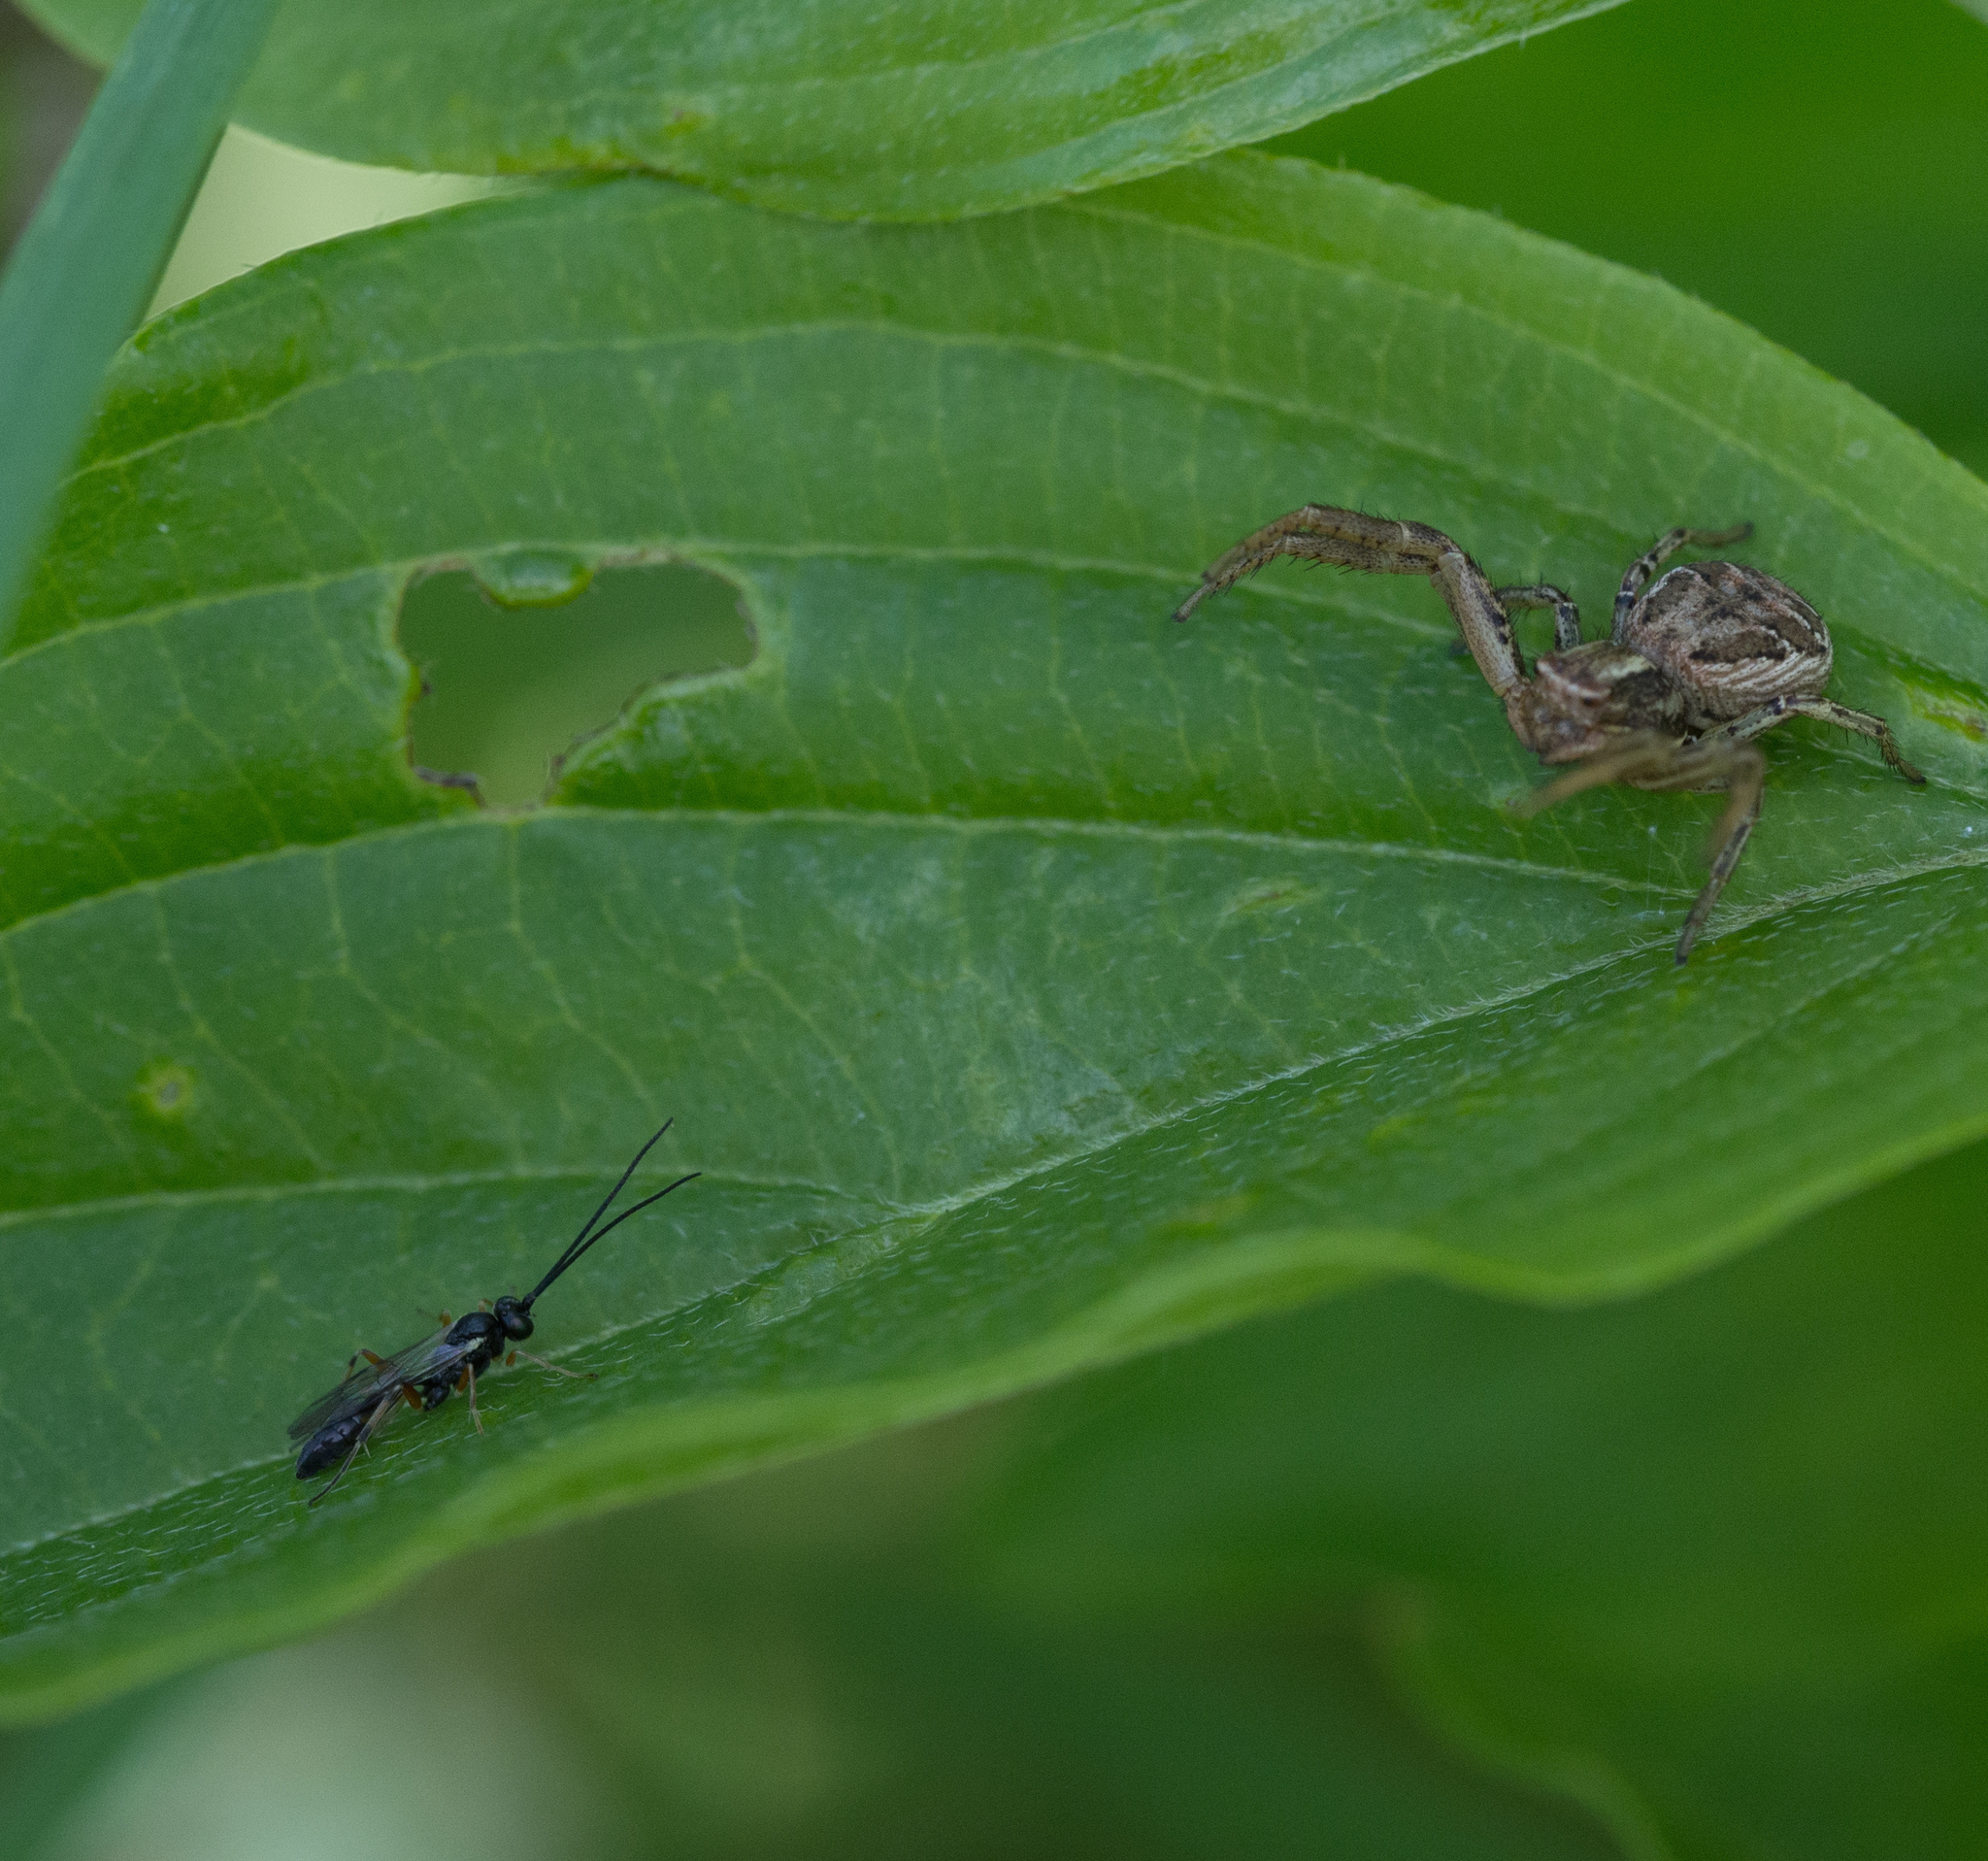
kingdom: Animalia
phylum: Arthropoda
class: Arachnida
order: Araneae
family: Thomisidae
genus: Xysticus
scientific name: Xysticus
